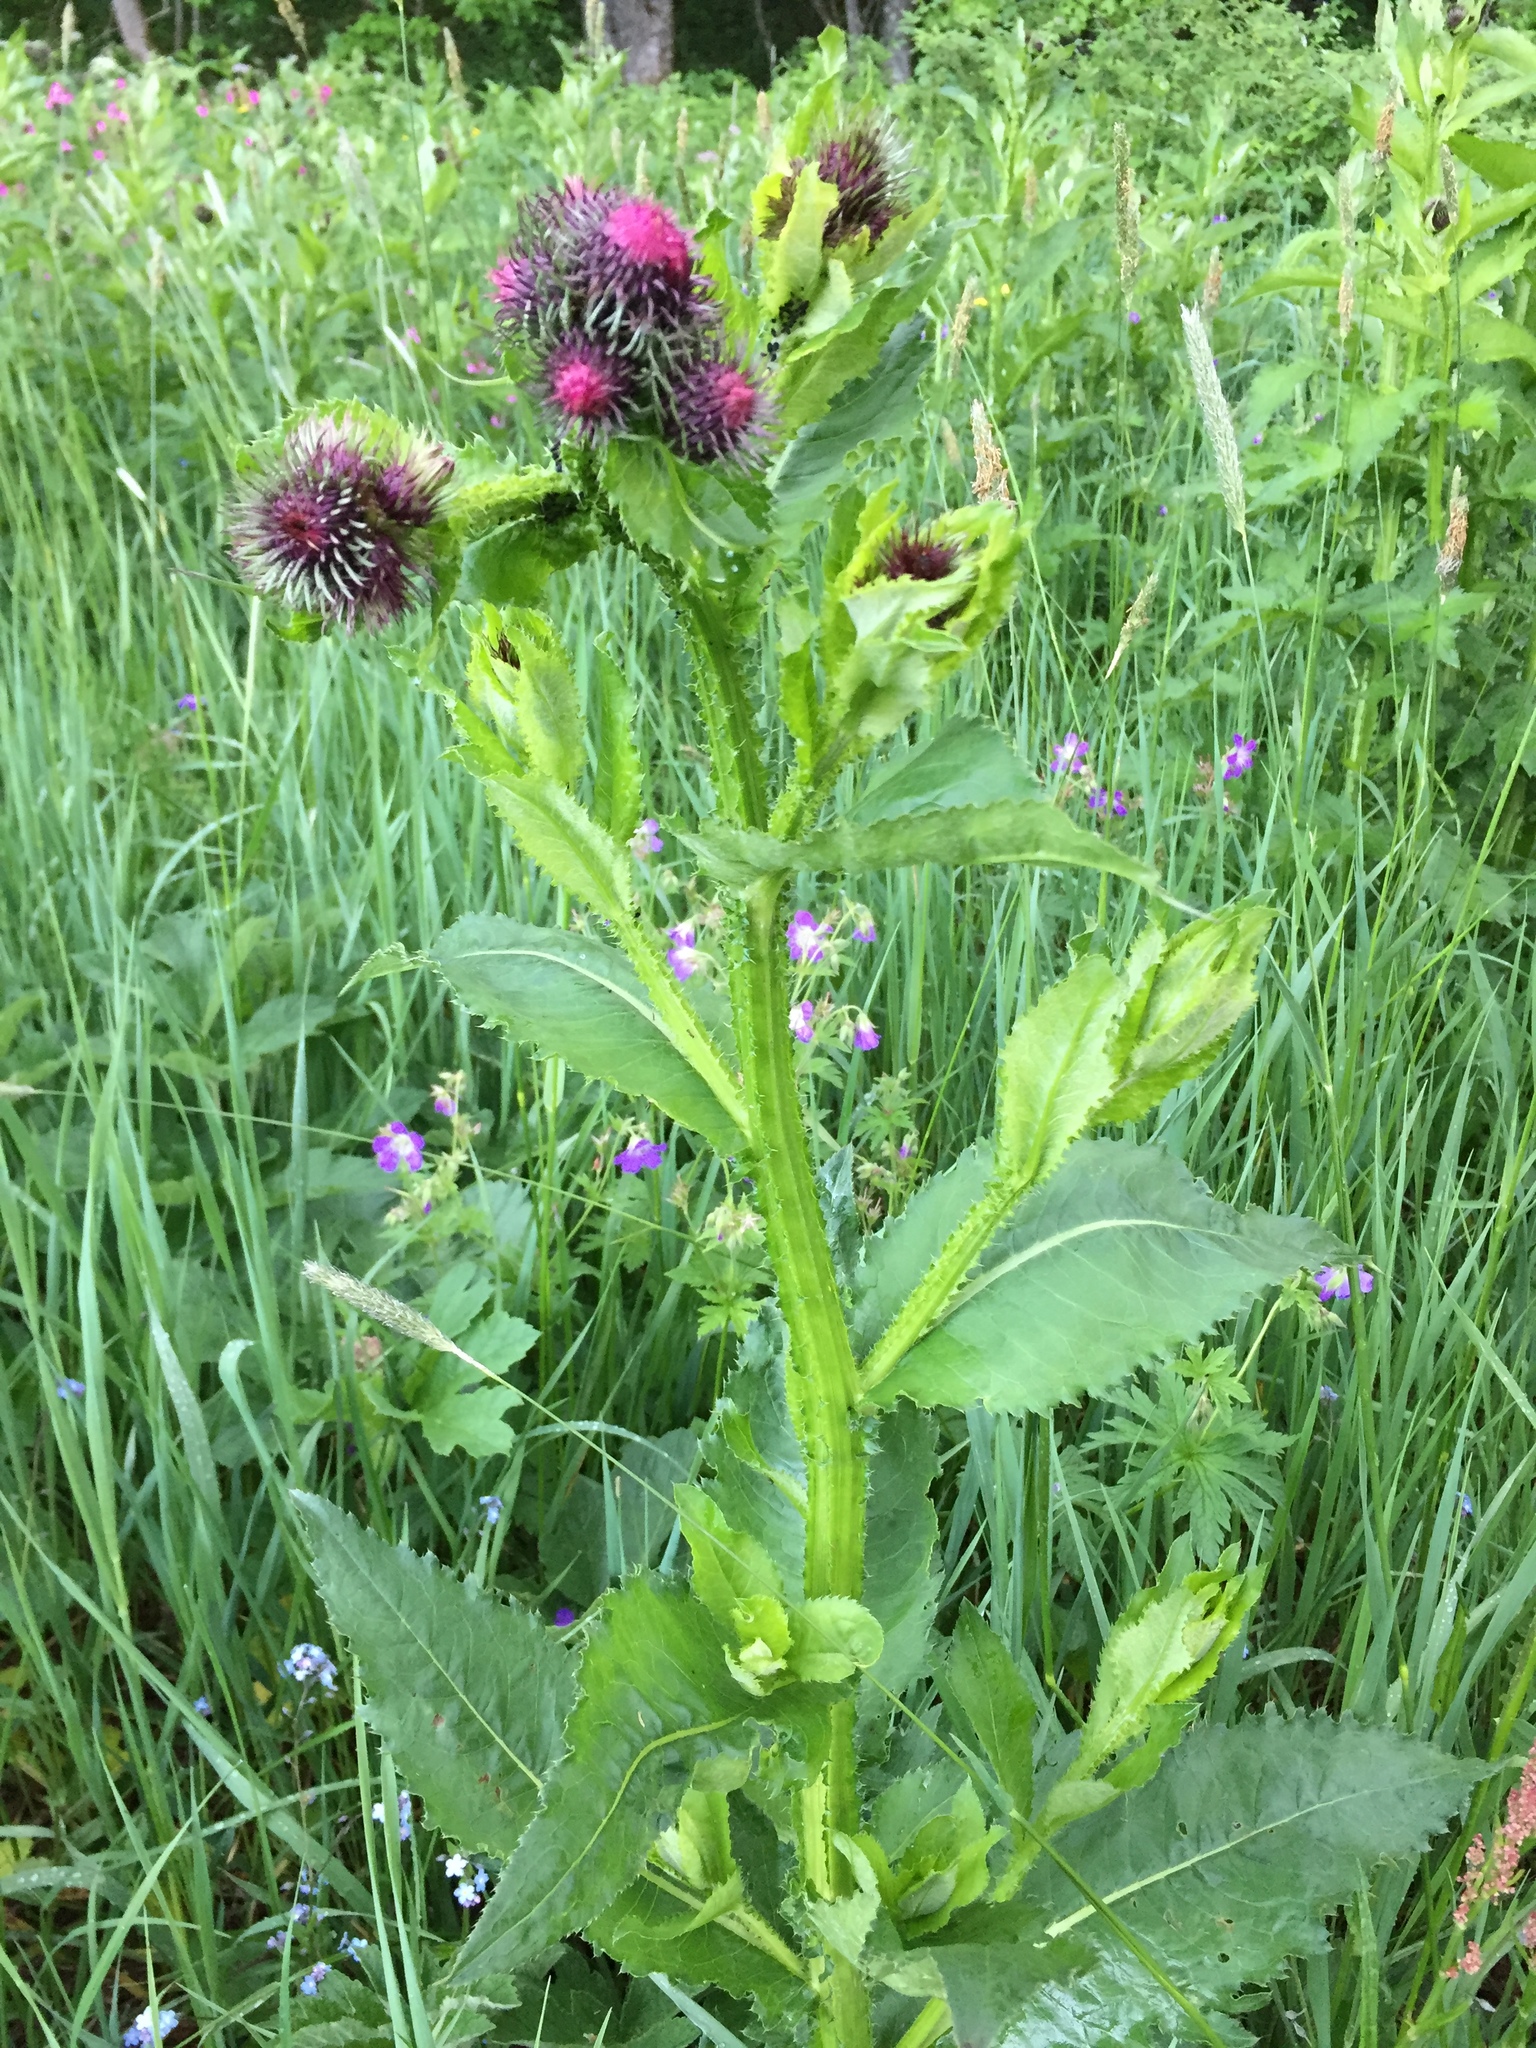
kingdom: Plantae
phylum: Tracheophyta
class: Magnoliopsida
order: Asterales
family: Asteraceae
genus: Carduus
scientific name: Carduus personata
